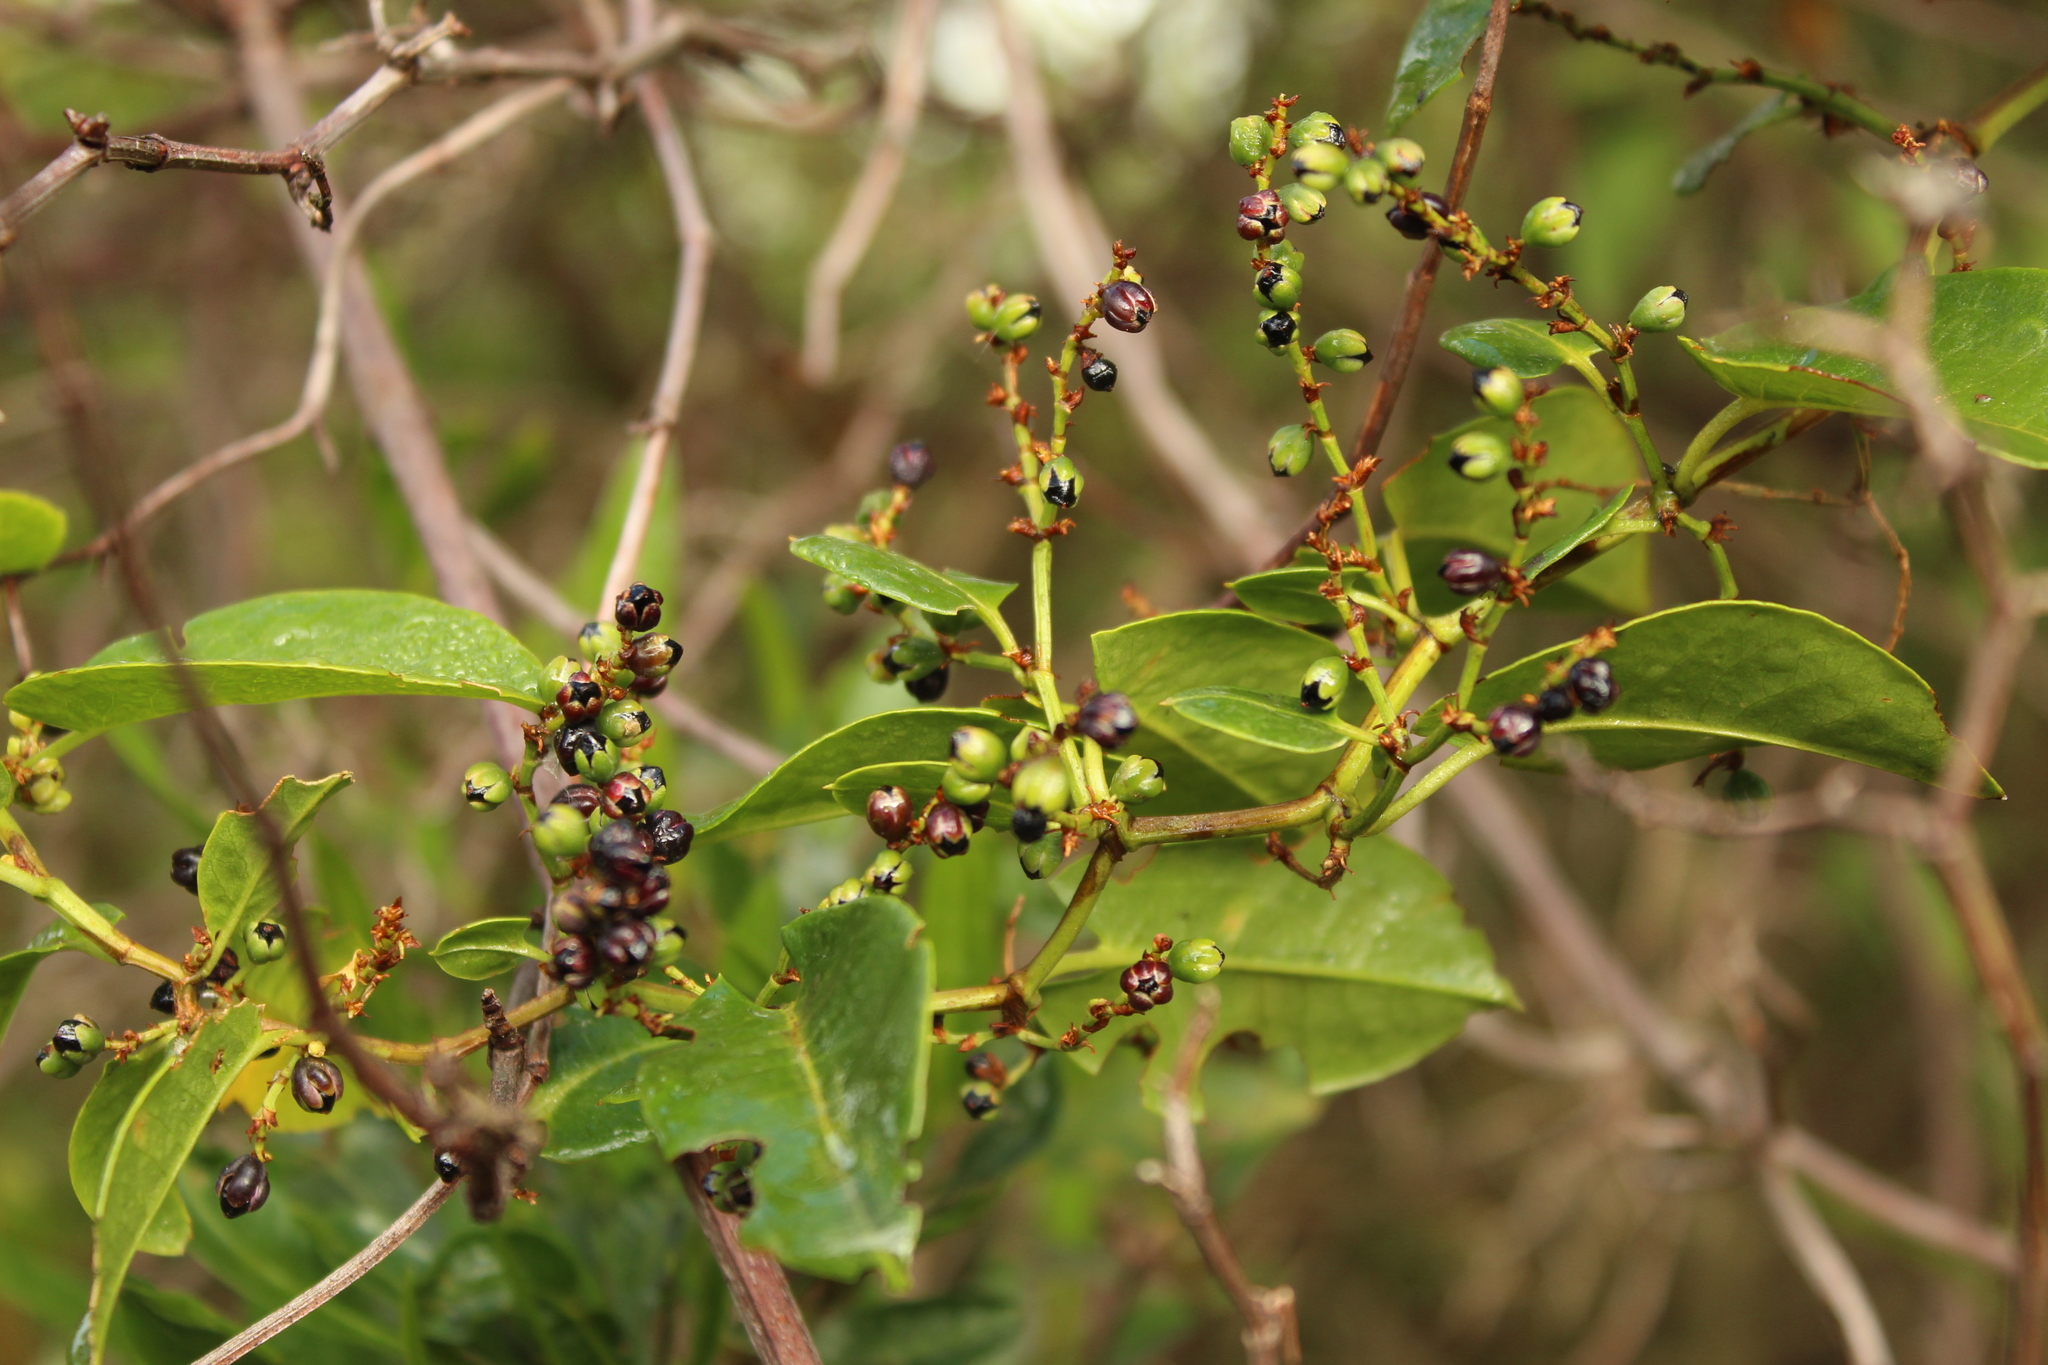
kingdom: Plantae
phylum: Tracheophyta
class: Magnoliopsida
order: Caryophyllales
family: Polygonaceae
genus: Muehlenbeckia
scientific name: Muehlenbeckia tamnifolia
